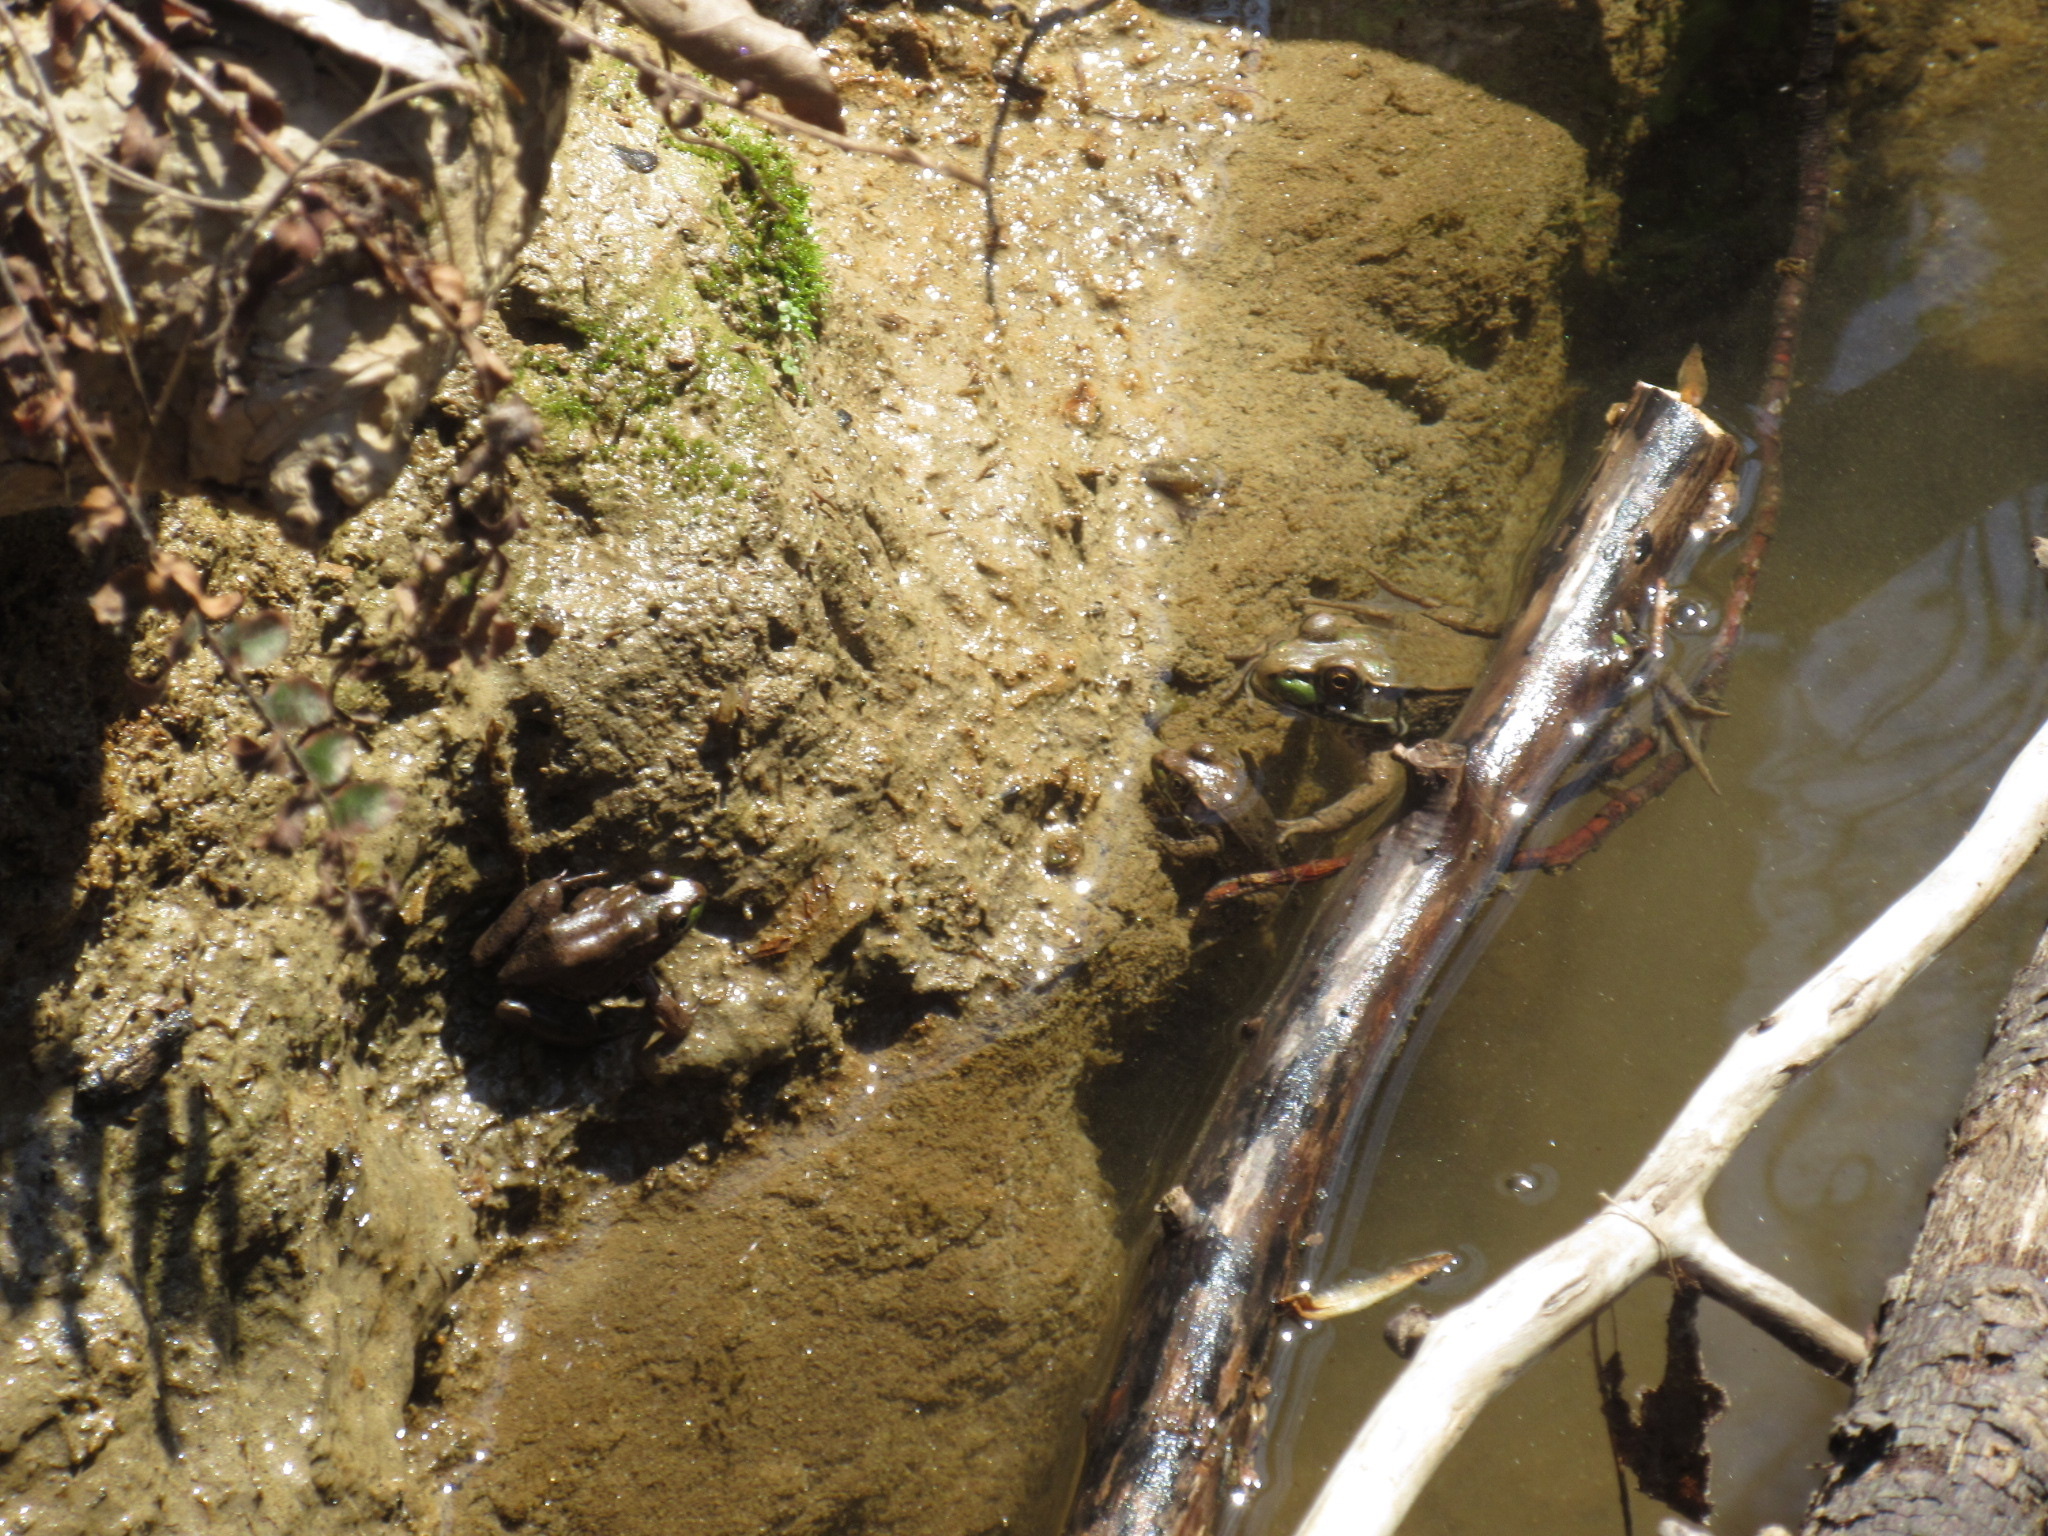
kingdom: Animalia
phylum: Chordata
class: Amphibia
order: Anura
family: Ranidae
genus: Lithobates
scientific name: Lithobates clamitans
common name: Green frog
